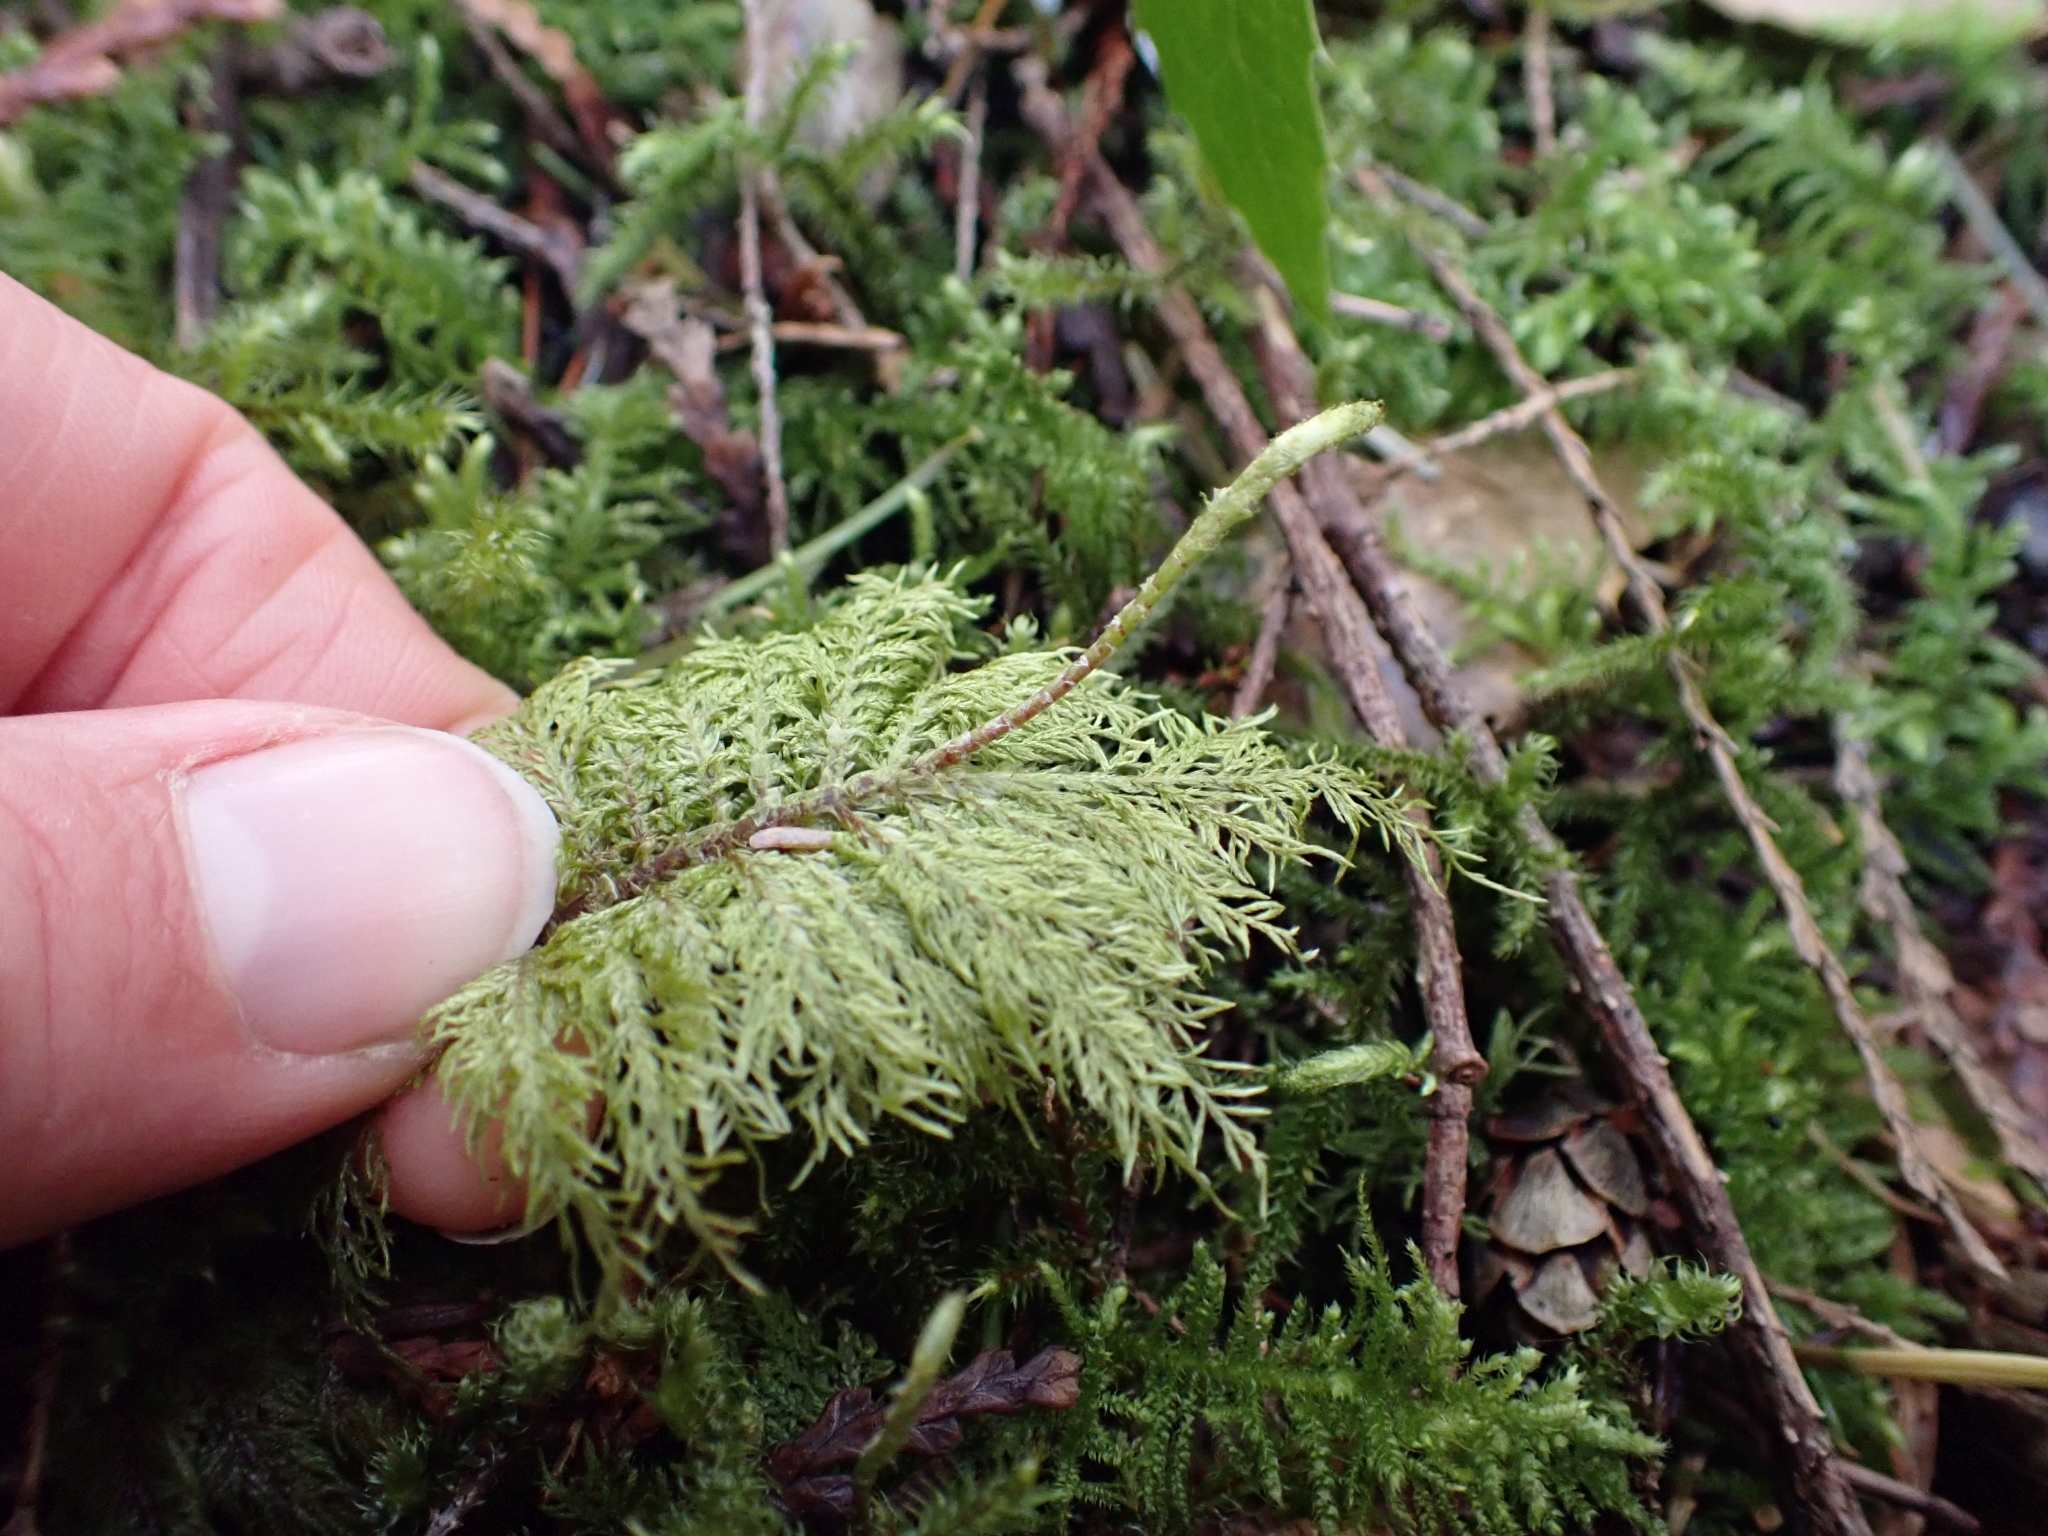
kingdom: Plantae
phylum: Bryophyta
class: Bryopsida
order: Hypnales
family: Hylocomiaceae
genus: Hylocomium
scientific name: Hylocomium splendens
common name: Stairstep moss
